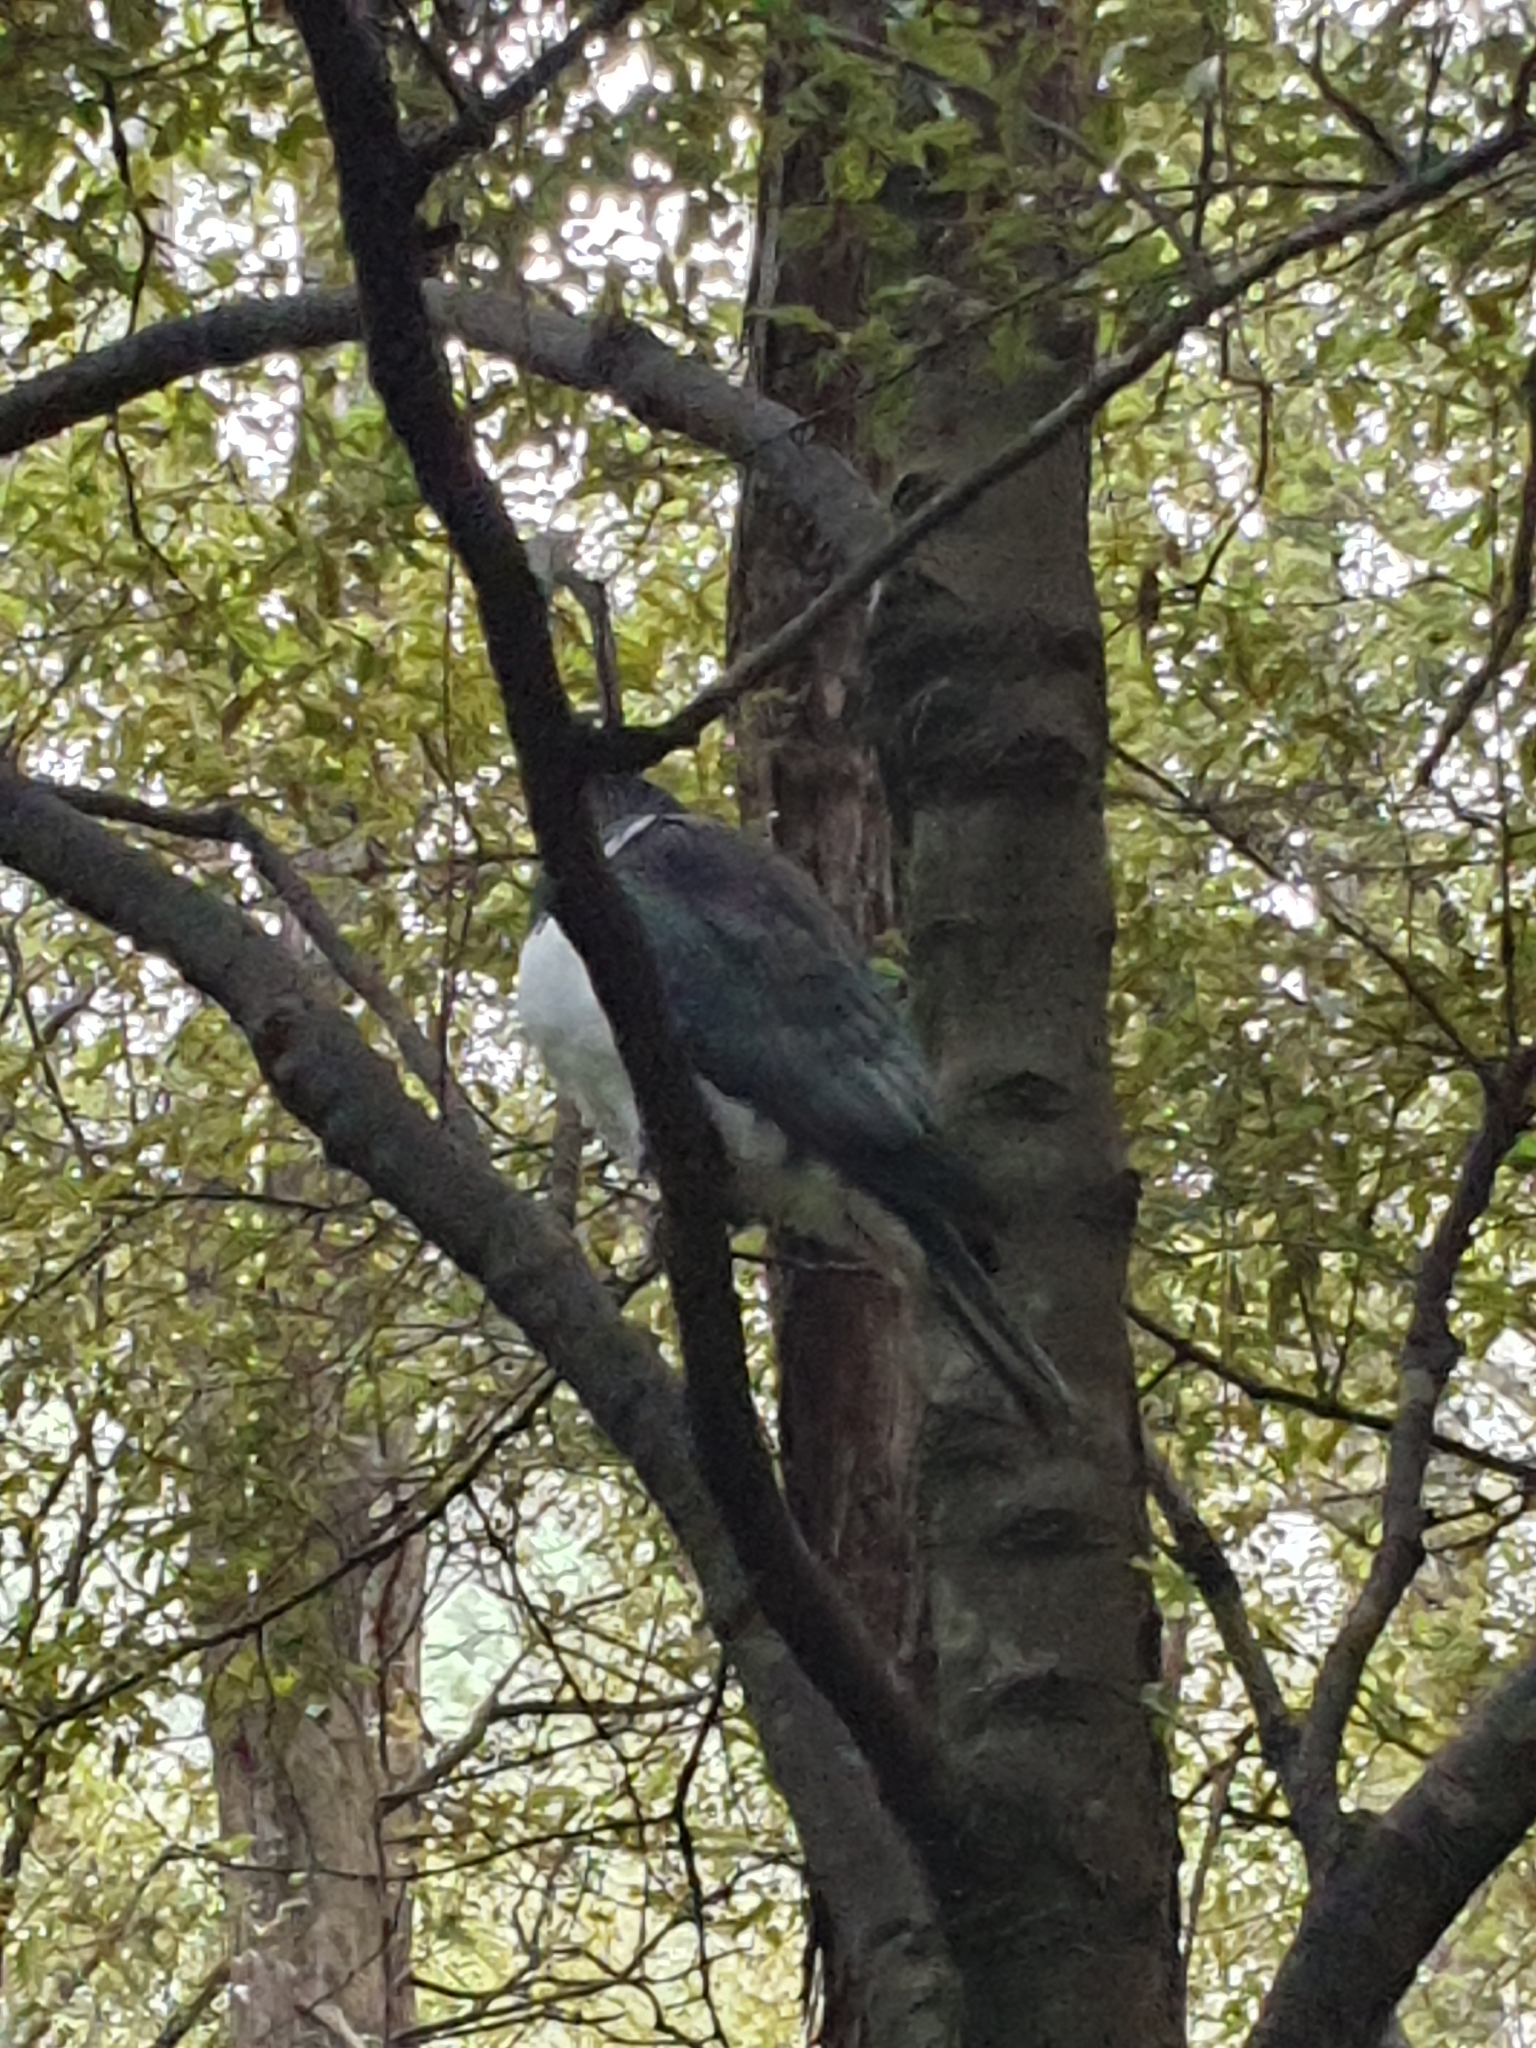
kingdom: Animalia
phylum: Chordata
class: Aves
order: Columbiformes
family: Columbidae
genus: Hemiphaga
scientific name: Hemiphaga novaeseelandiae
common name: New zealand pigeon
